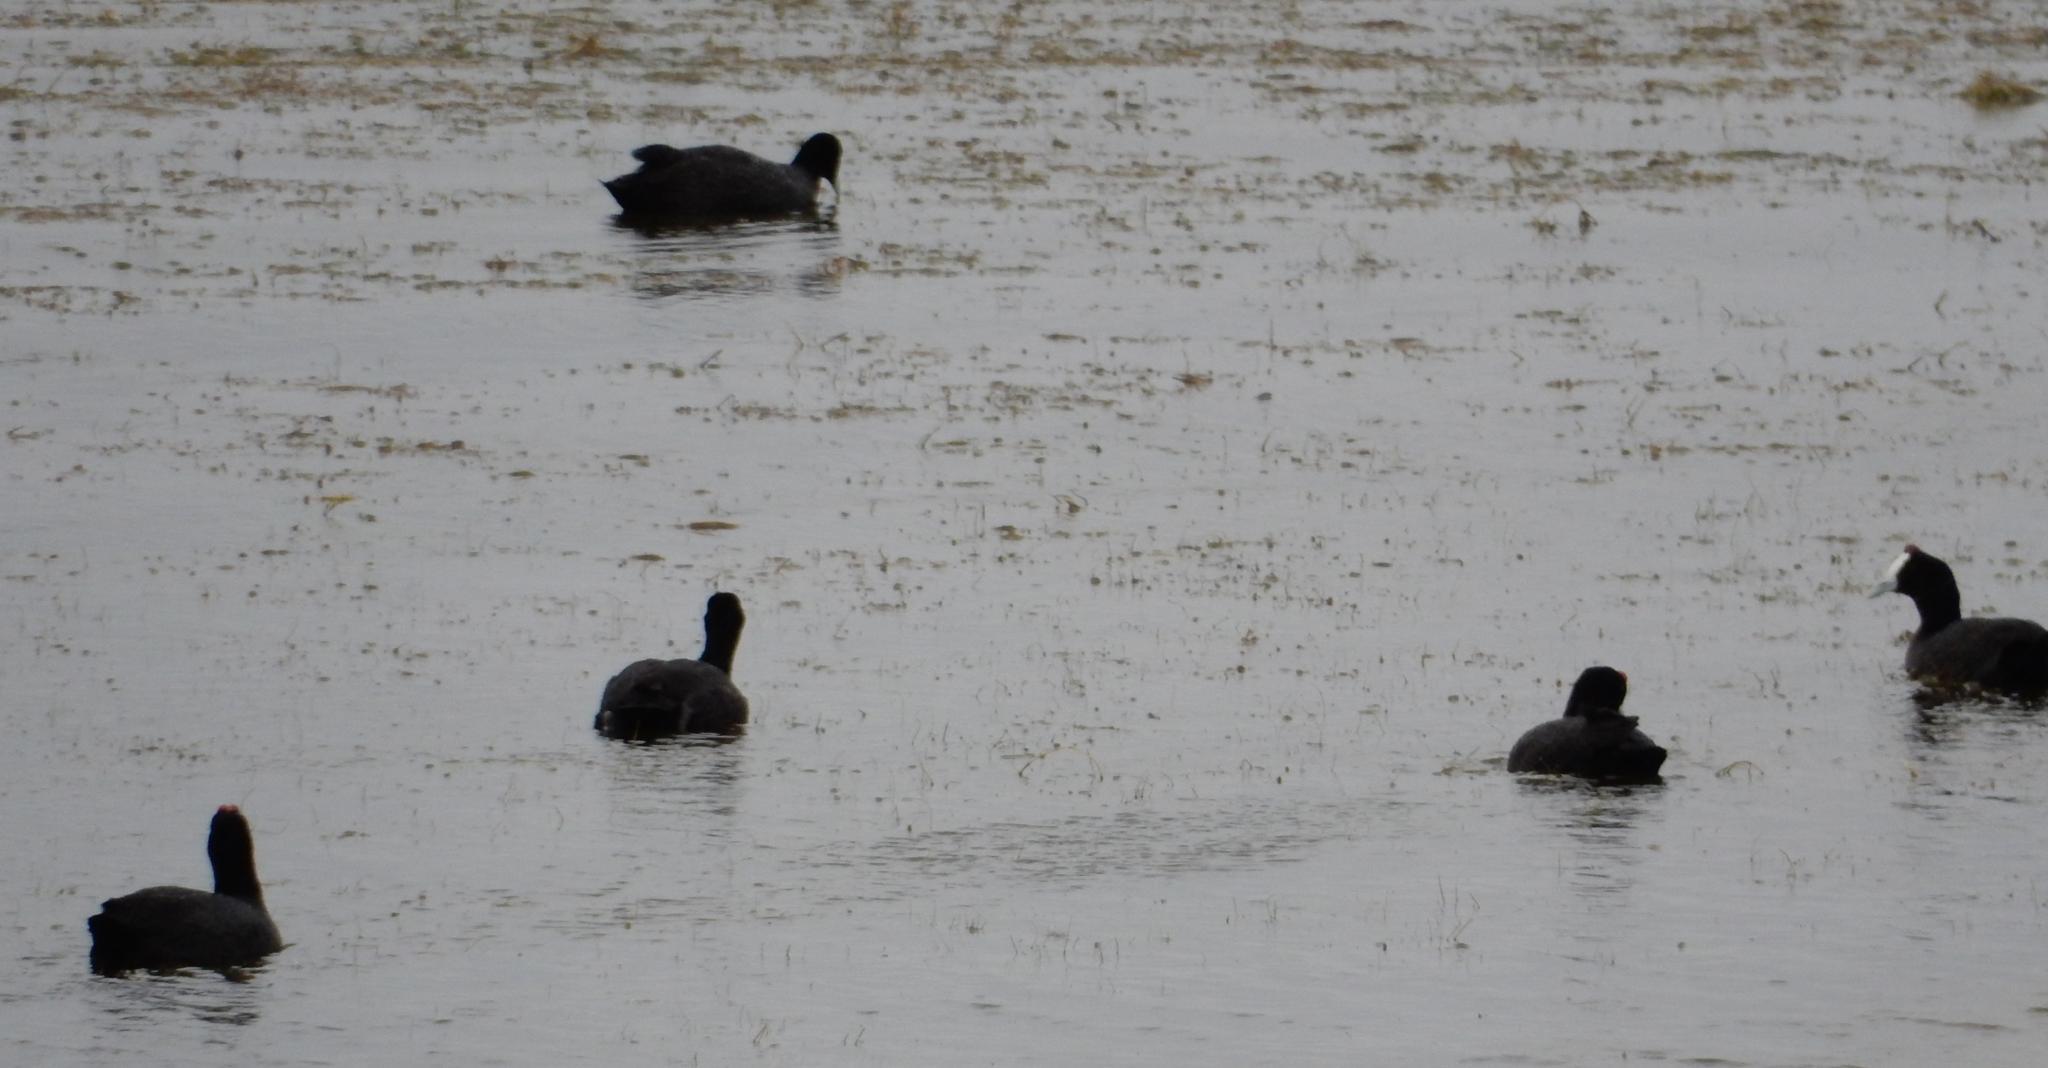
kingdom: Animalia
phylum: Chordata
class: Aves
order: Gruiformes
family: Rallidae
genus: Fulica
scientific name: Fulica cristata
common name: Red-knobbed coot
